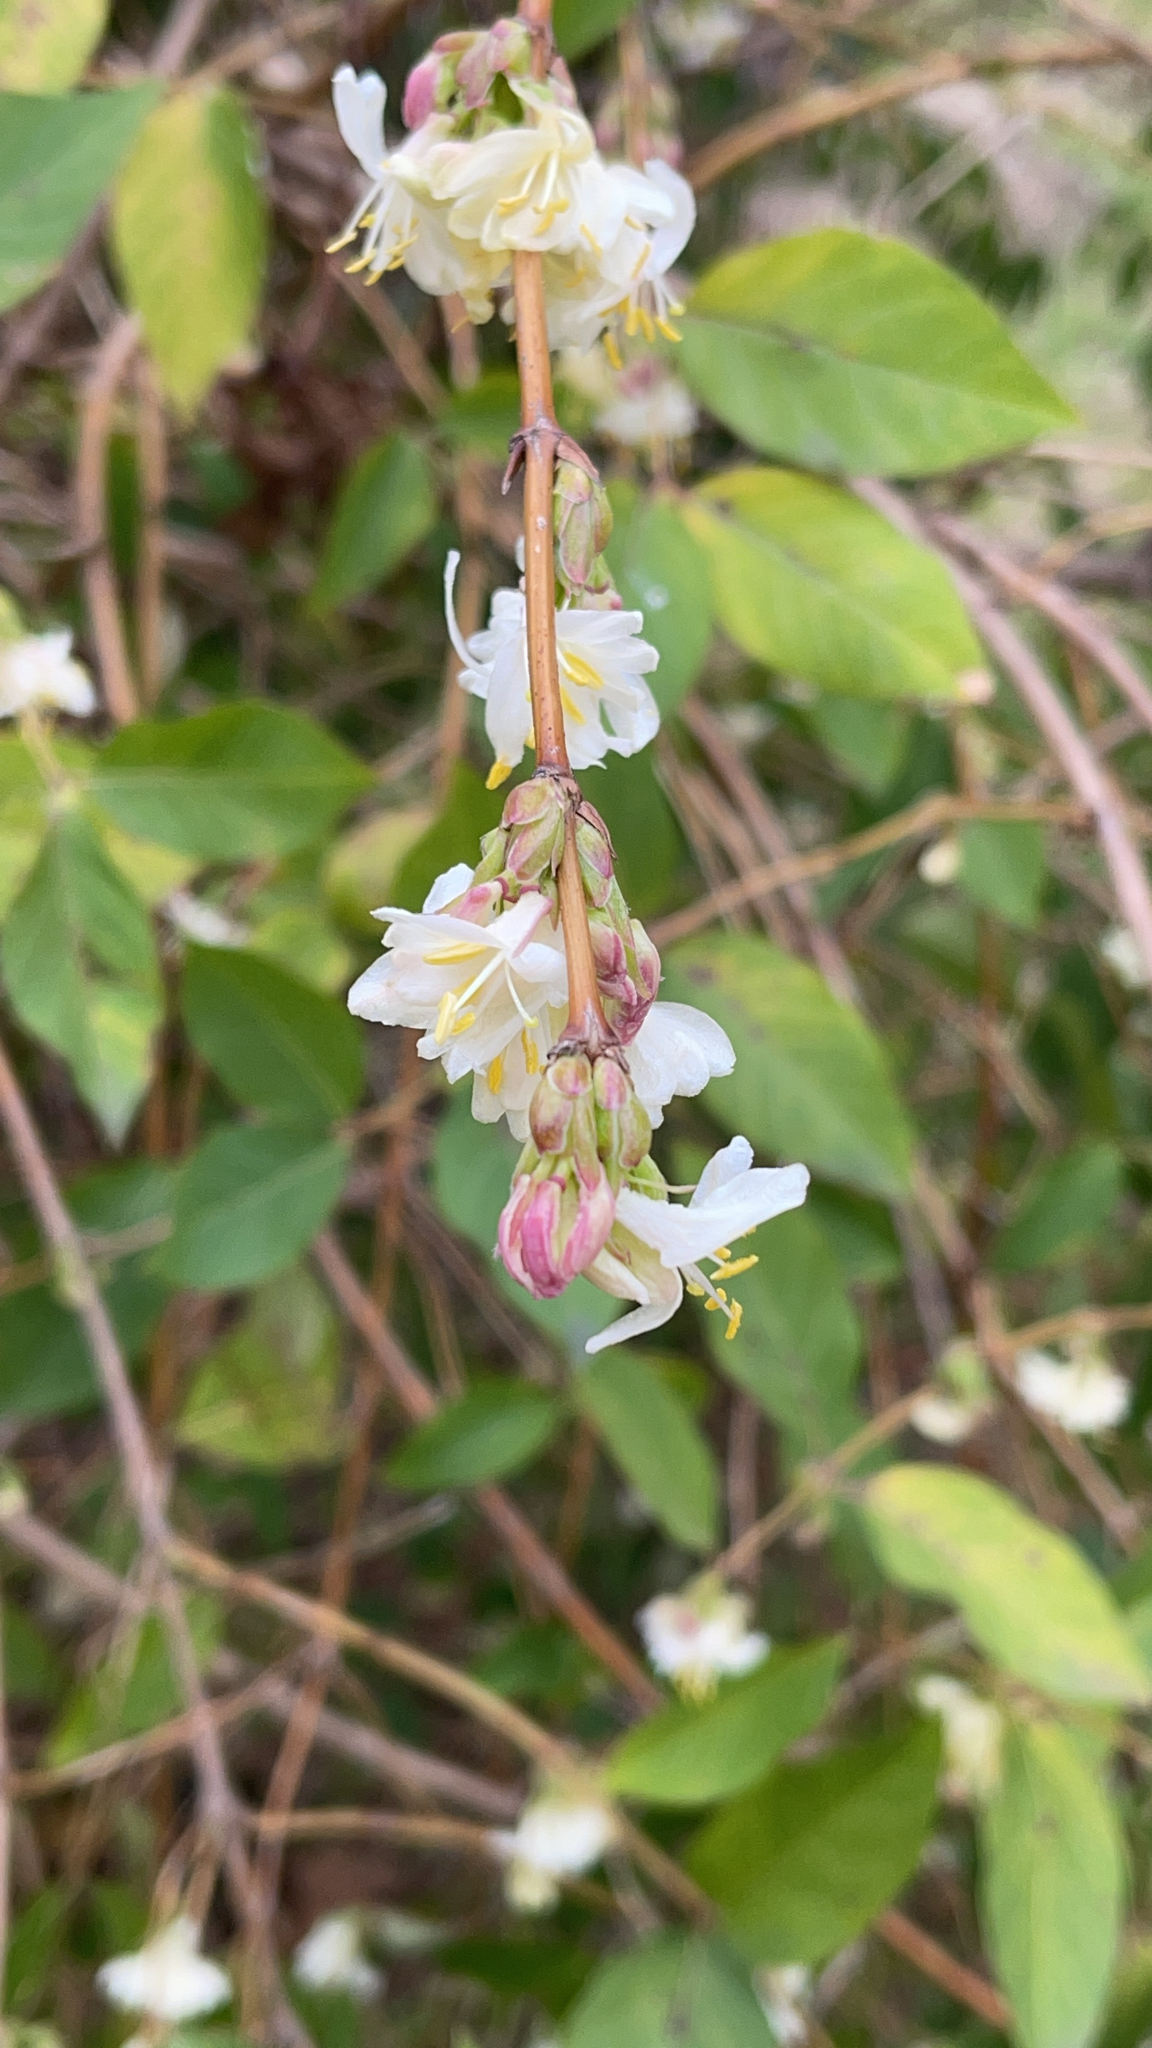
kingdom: Plantae
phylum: Tracheophyta
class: Magnoliopsida
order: Dipsacales
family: Caprifoliaceae
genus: Lonicera
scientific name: Lonicera fragrantissima
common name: Fragrant honeysuckle
